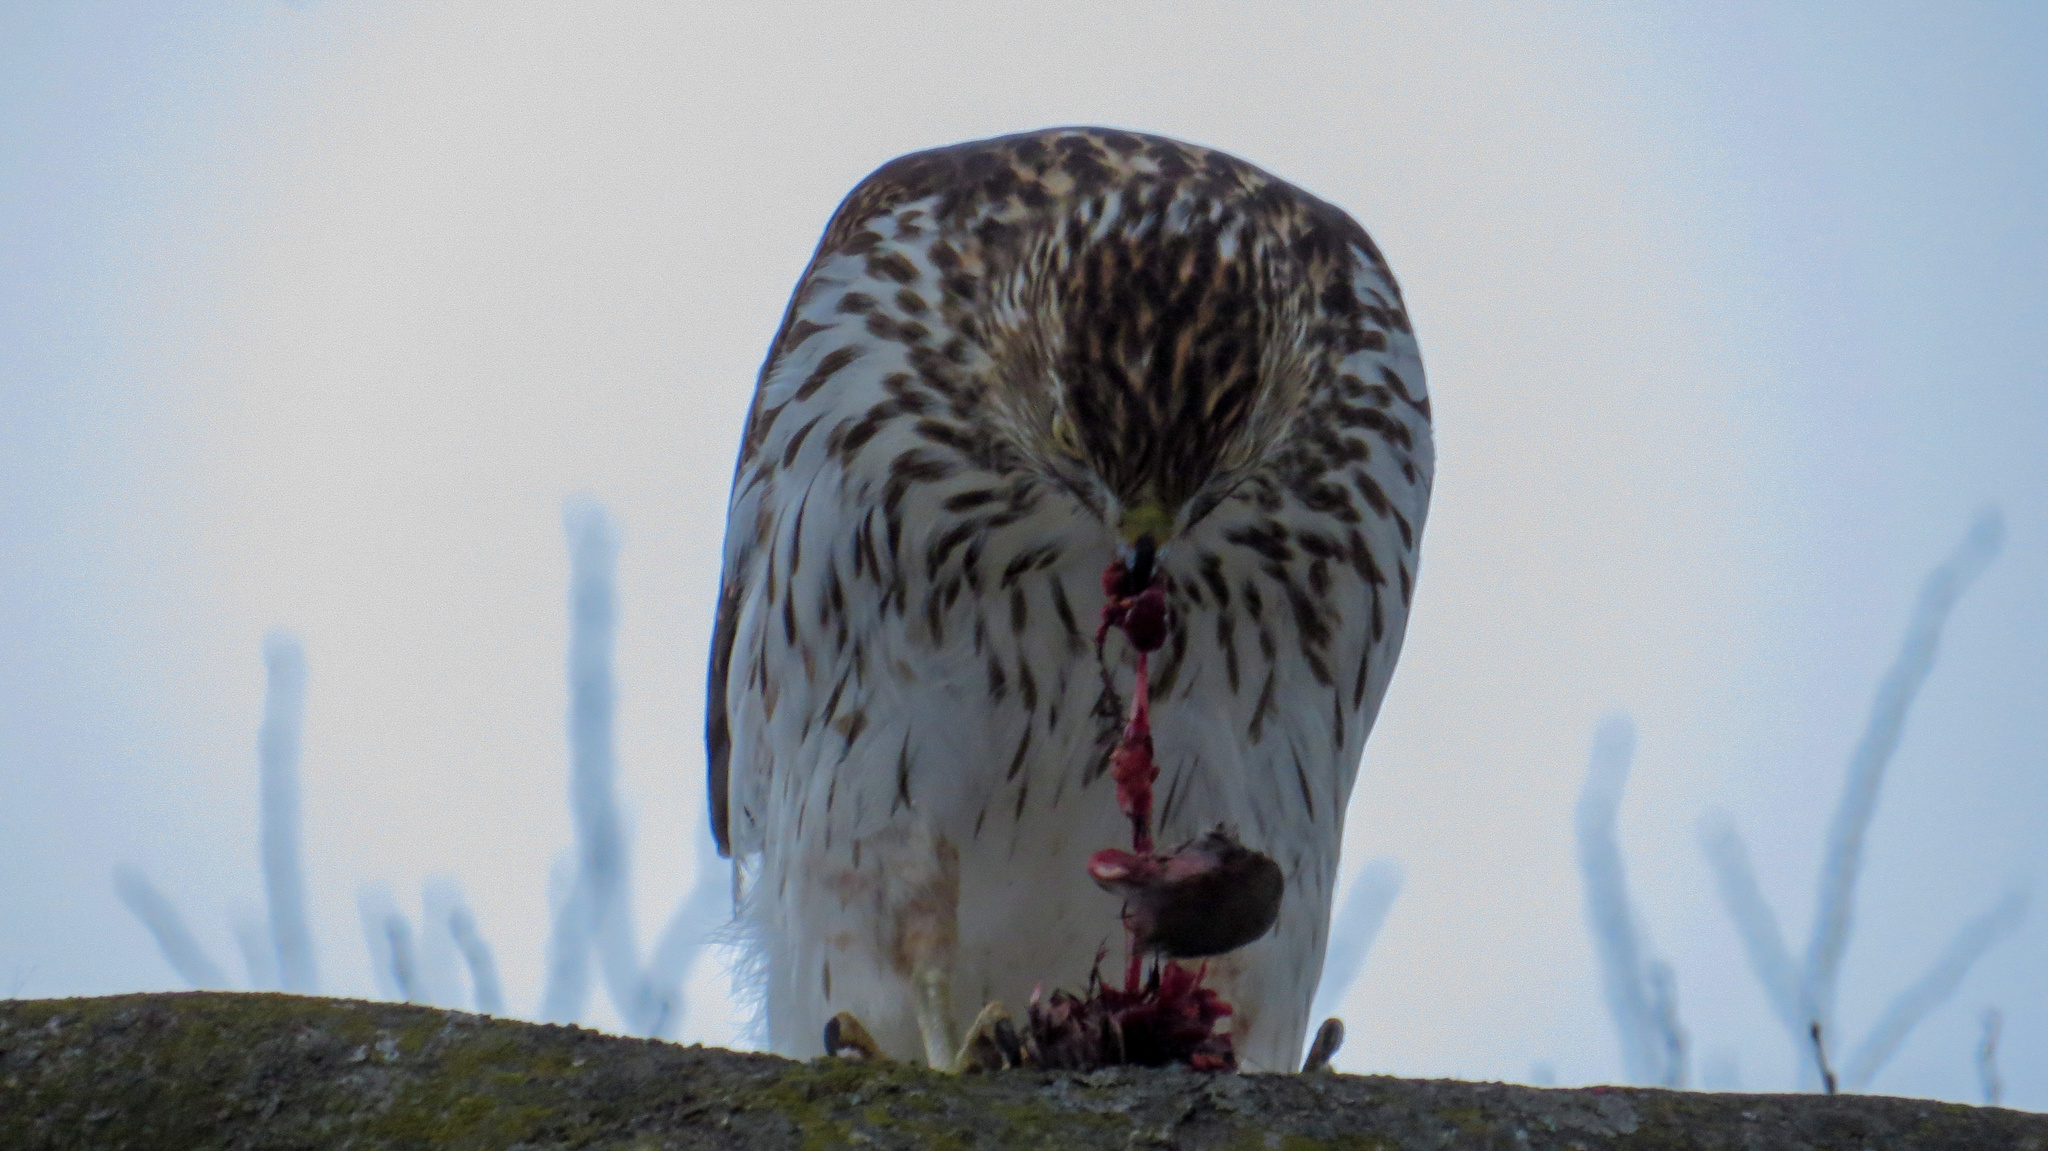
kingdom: Animalia
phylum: Chordata
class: Aves
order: Accipitriformes
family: Accipitridae
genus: Accipiter
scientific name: Accipiter cooperii
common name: Cooper's hawk
